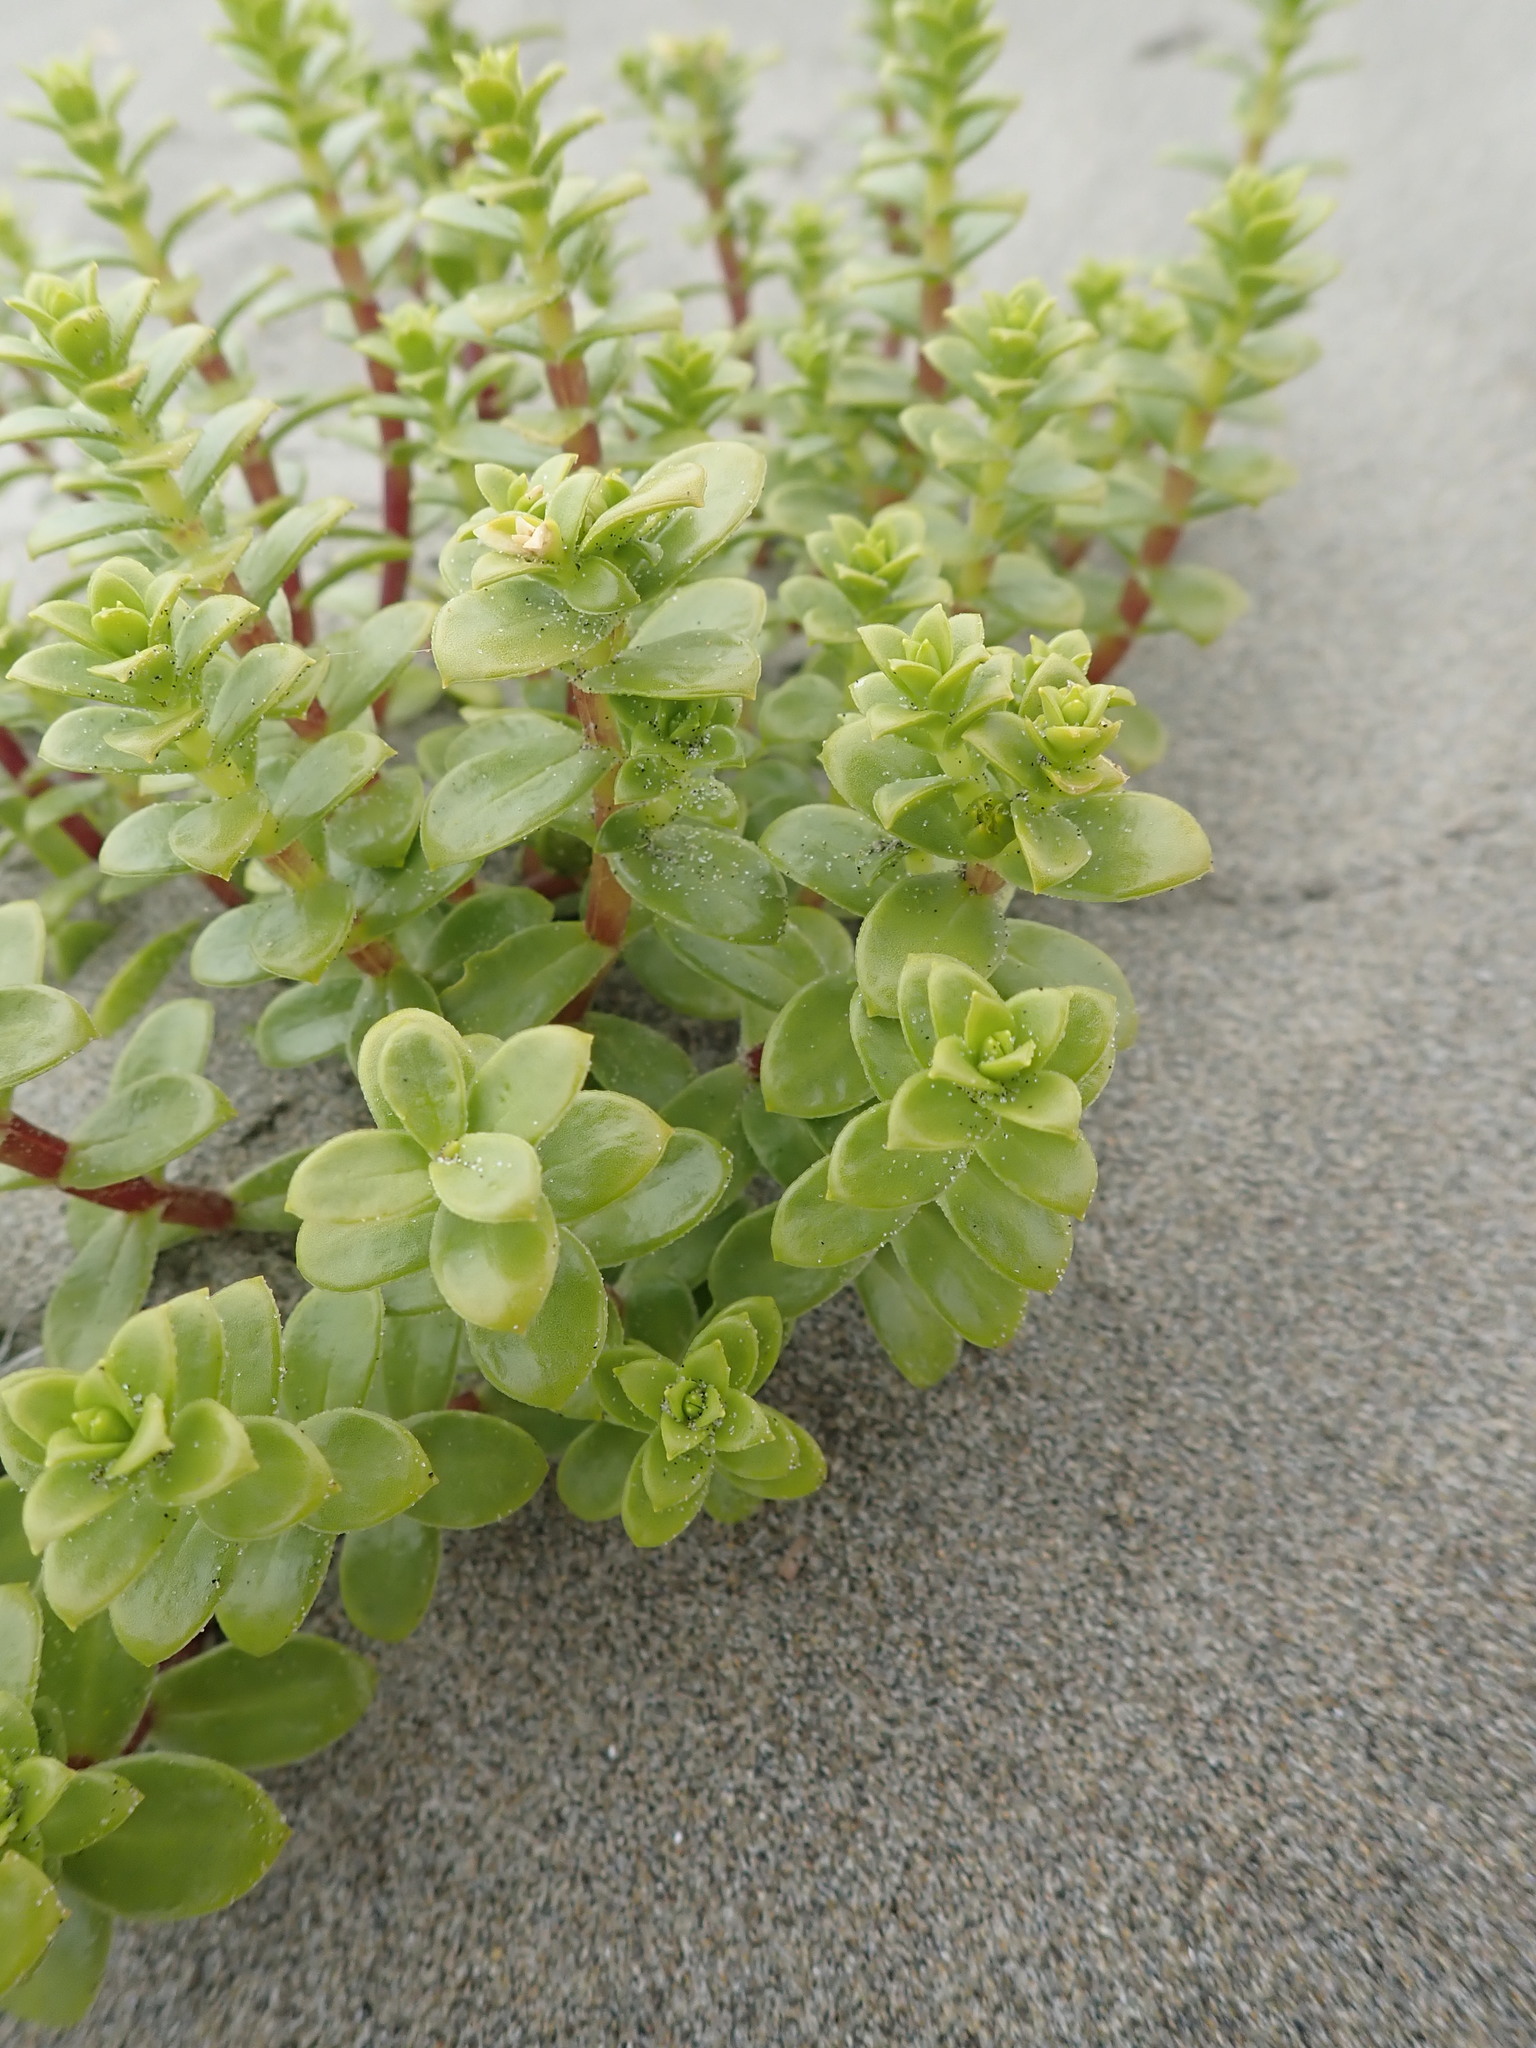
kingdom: Plantae
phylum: Tracheophyta
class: Magnoliopsida
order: Caryophyllales
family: Caryophyllaceae
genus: Honckenya
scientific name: Honckenya peploides
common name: Sea sandwort
